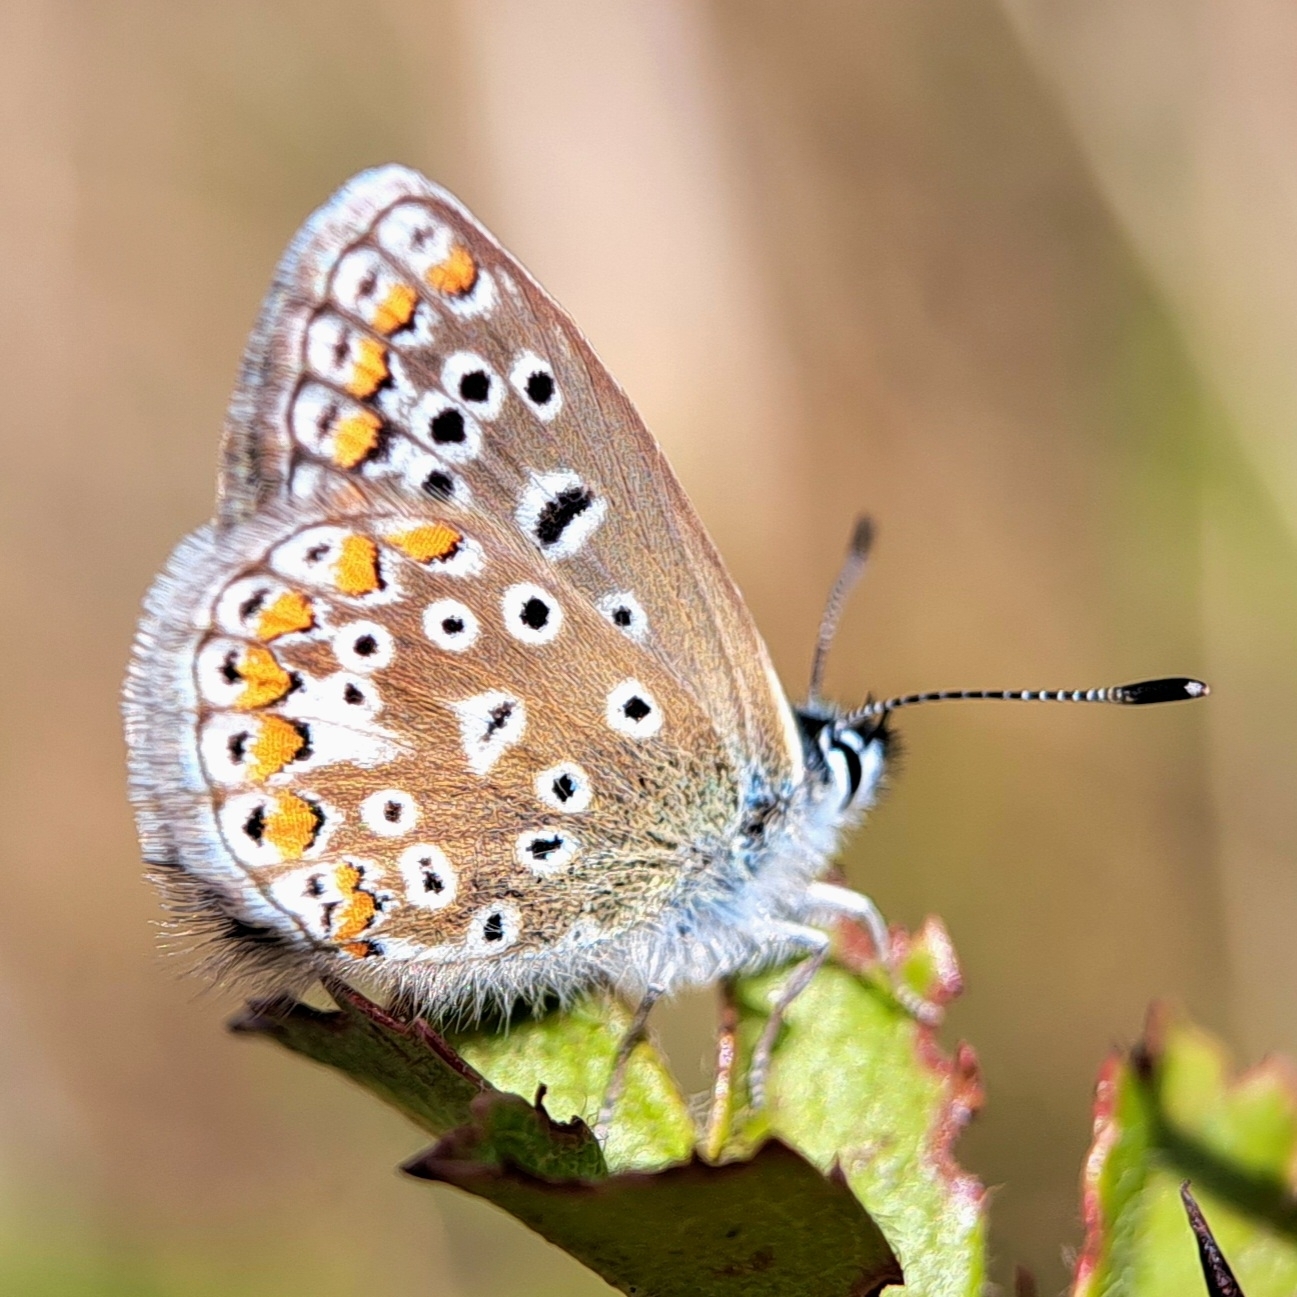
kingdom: Animalia
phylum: Arthropoda
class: Insecta
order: Lepidoptera
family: Lycaenidae
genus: Polyommatus
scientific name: Polyommatus icarus
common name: Common blue
